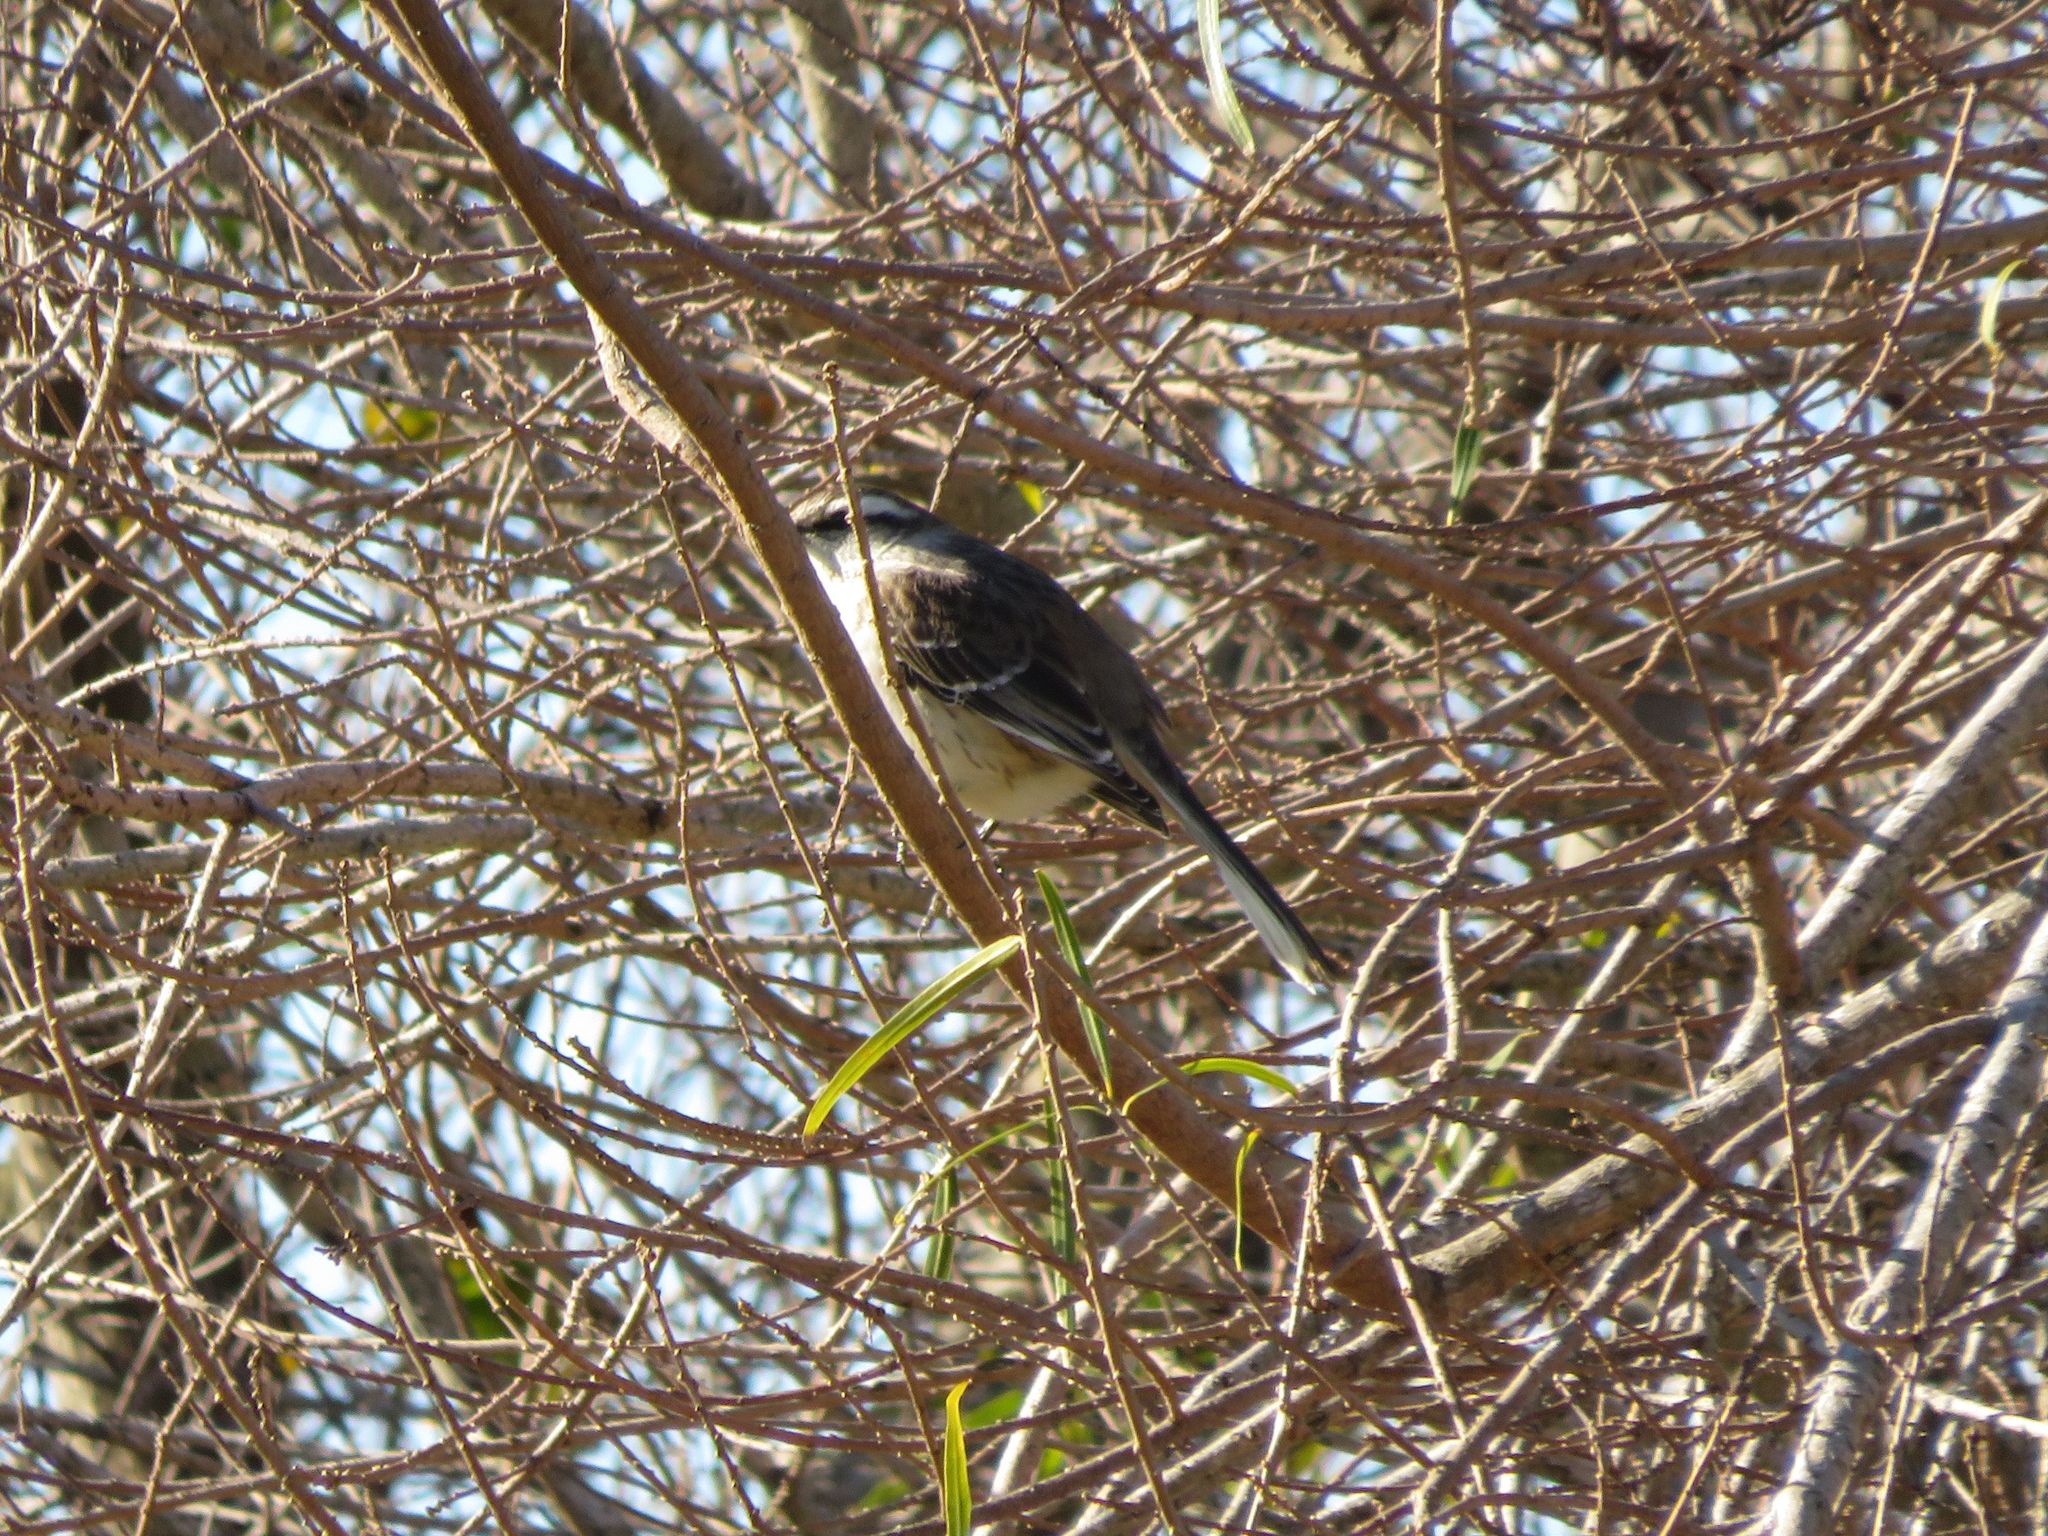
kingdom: Animalia
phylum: Chordata
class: Aves
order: Passeriformes
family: Mimidae
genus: Mimus
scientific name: Mimus saturninus
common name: Chalk-browed mockingbird
